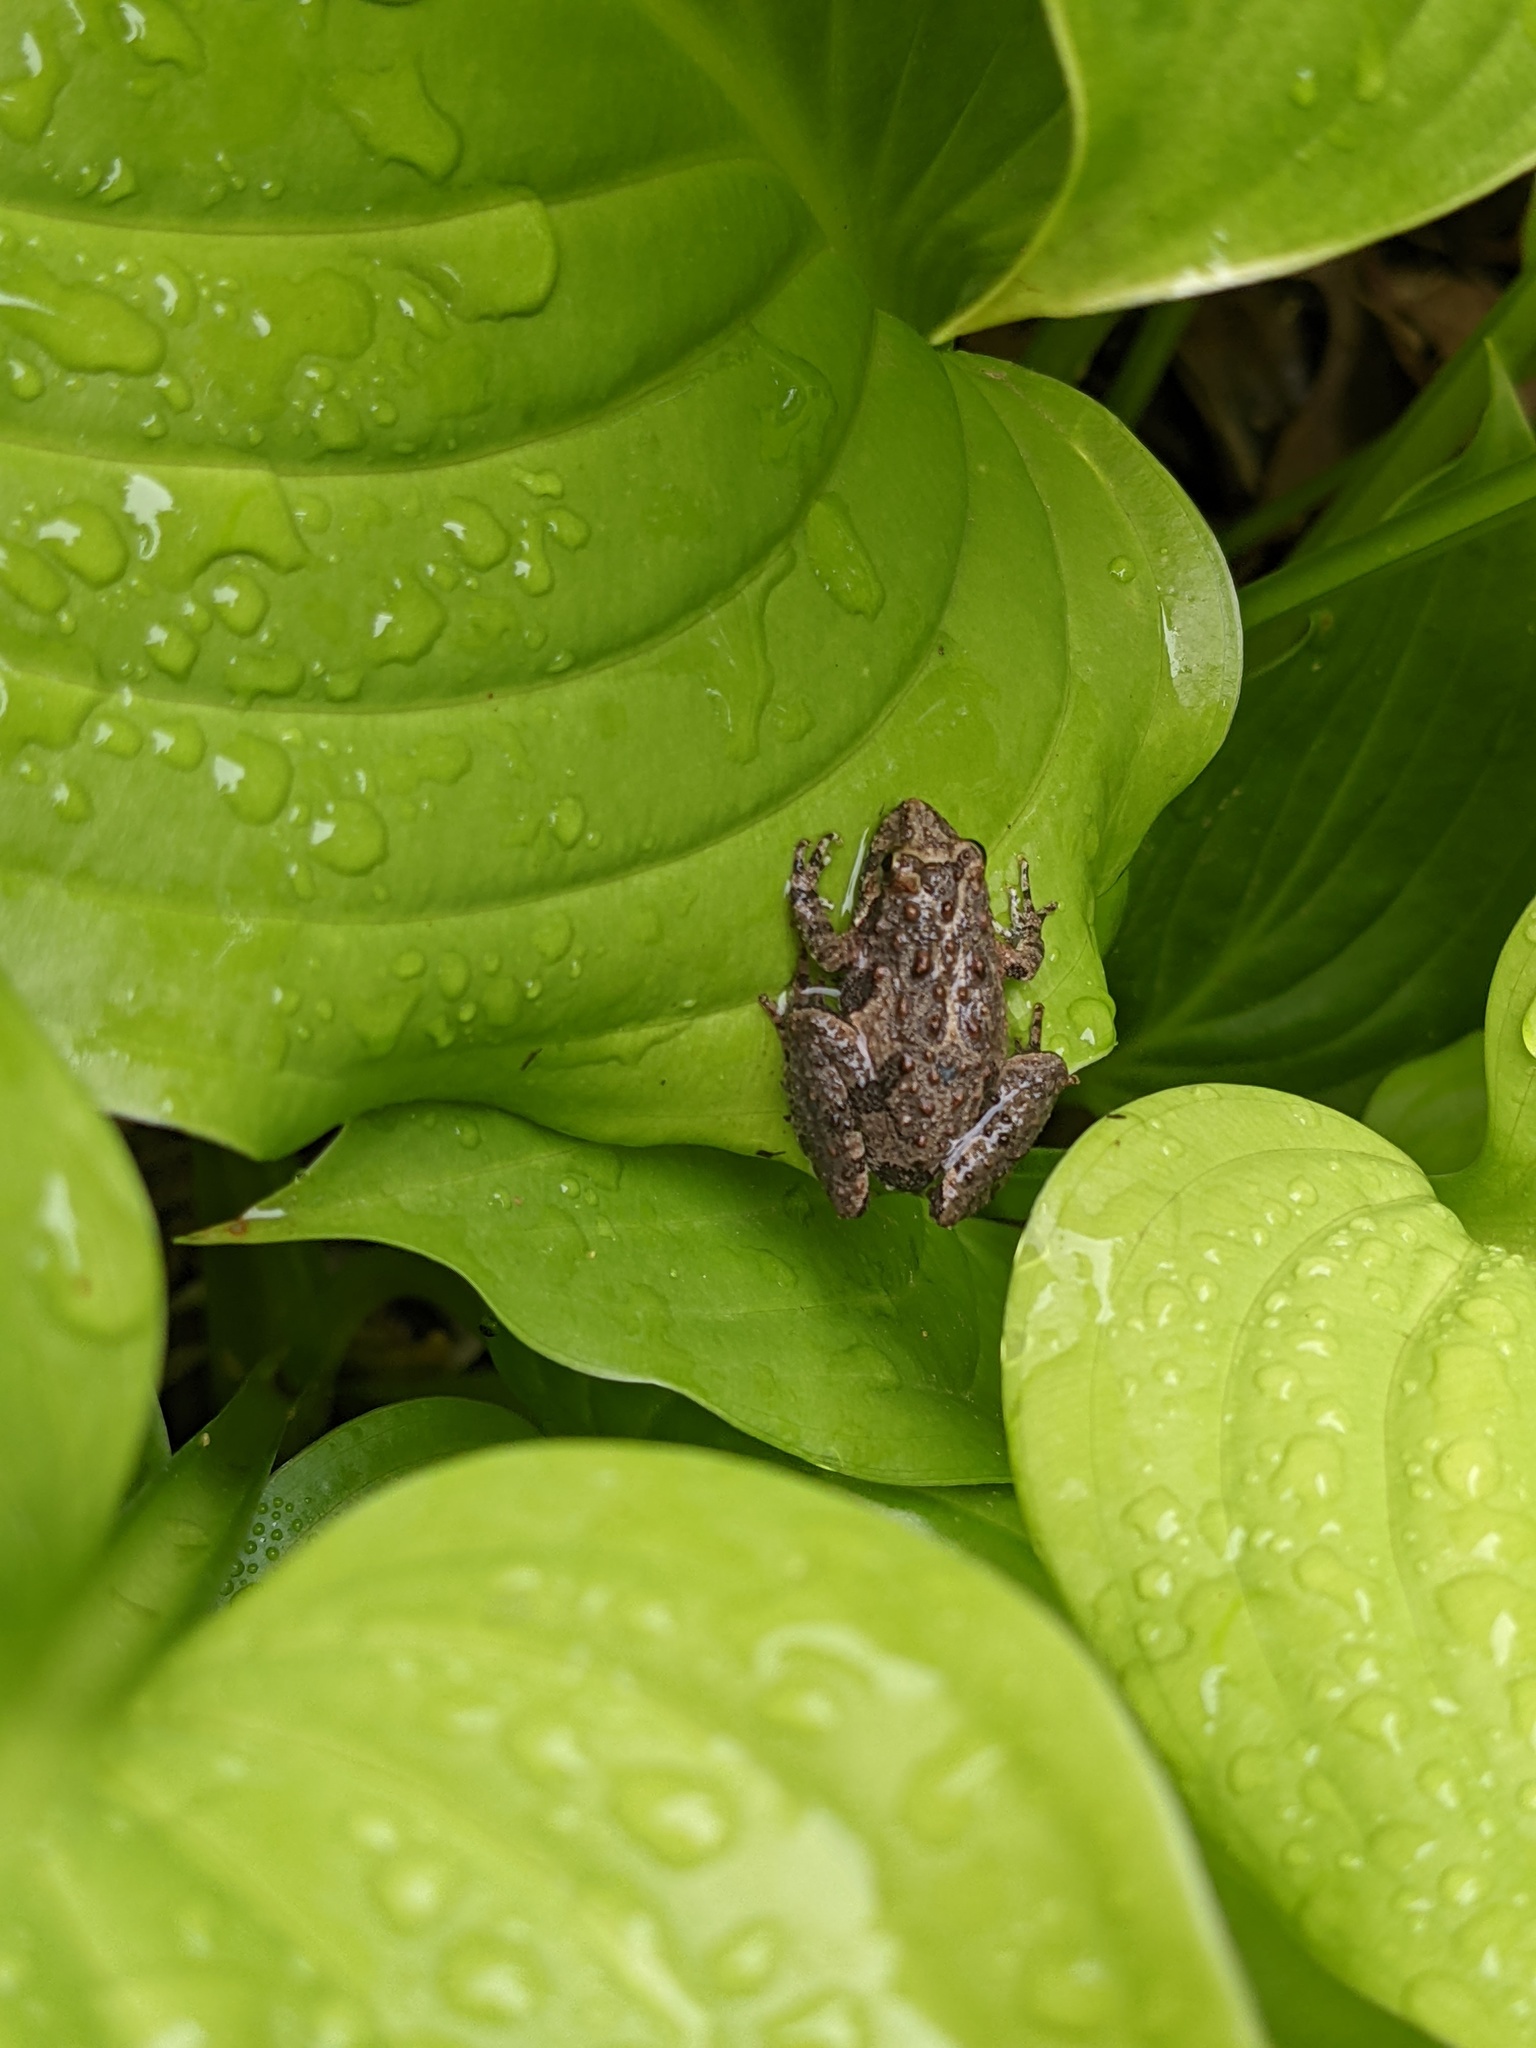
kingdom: Animalia
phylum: Chordata
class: Amphibia
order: Anura
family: Hylidae
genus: Acris
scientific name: Acris crepitans
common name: Northern cricket frog
